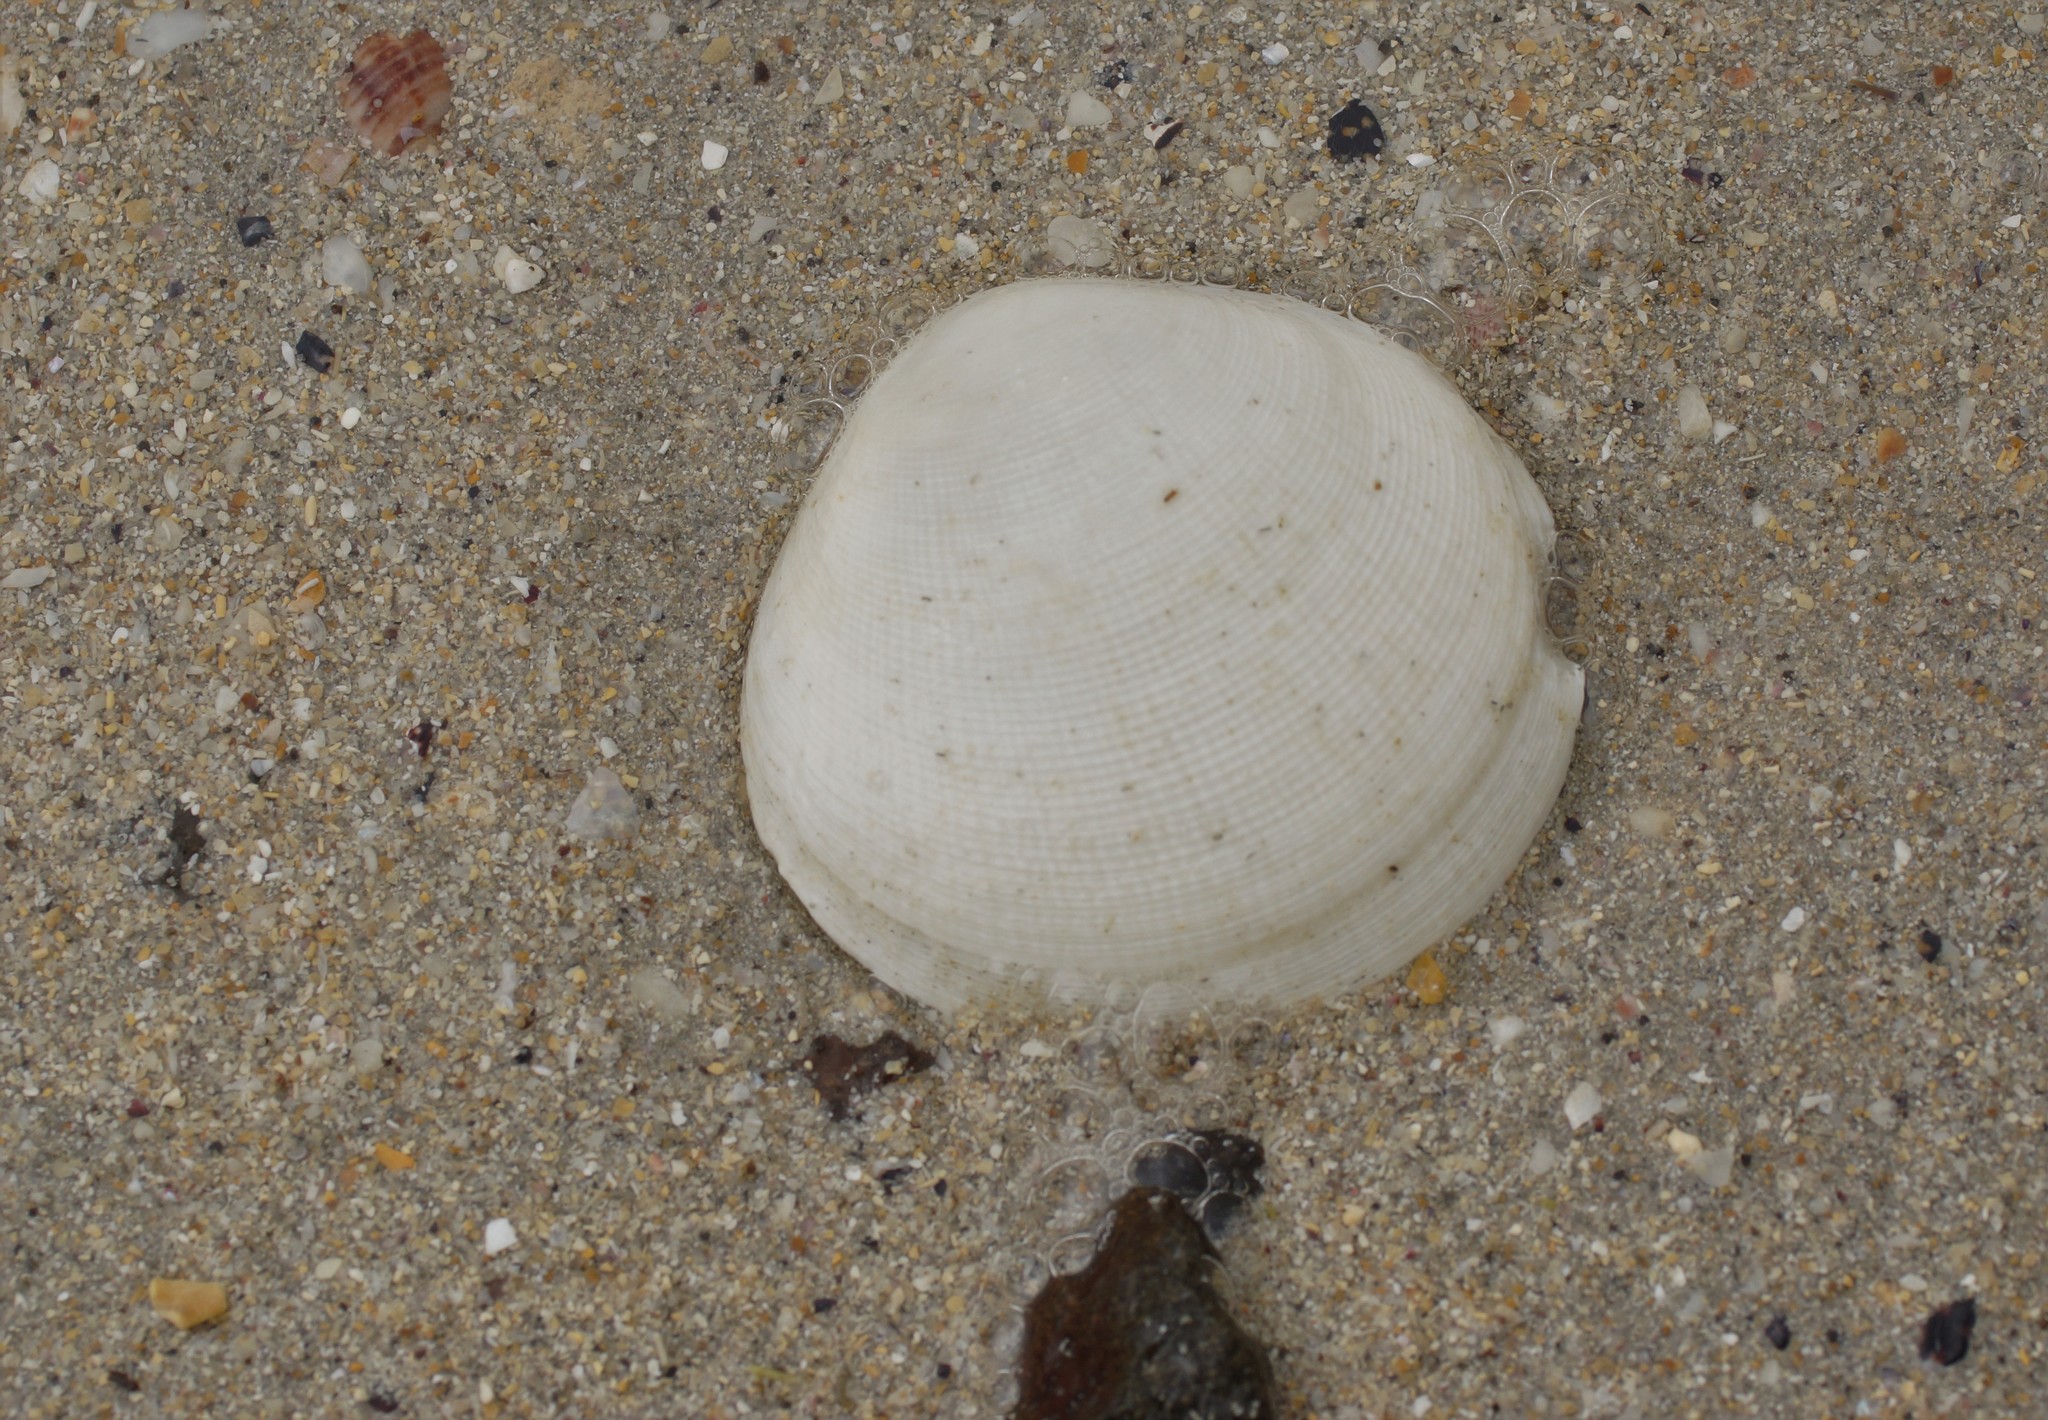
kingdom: Animalia
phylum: Mollusca
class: Bivalvia
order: Cardiida
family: Tellinidae
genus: Pseudarcopagia
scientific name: Pseudarcopagia decora
